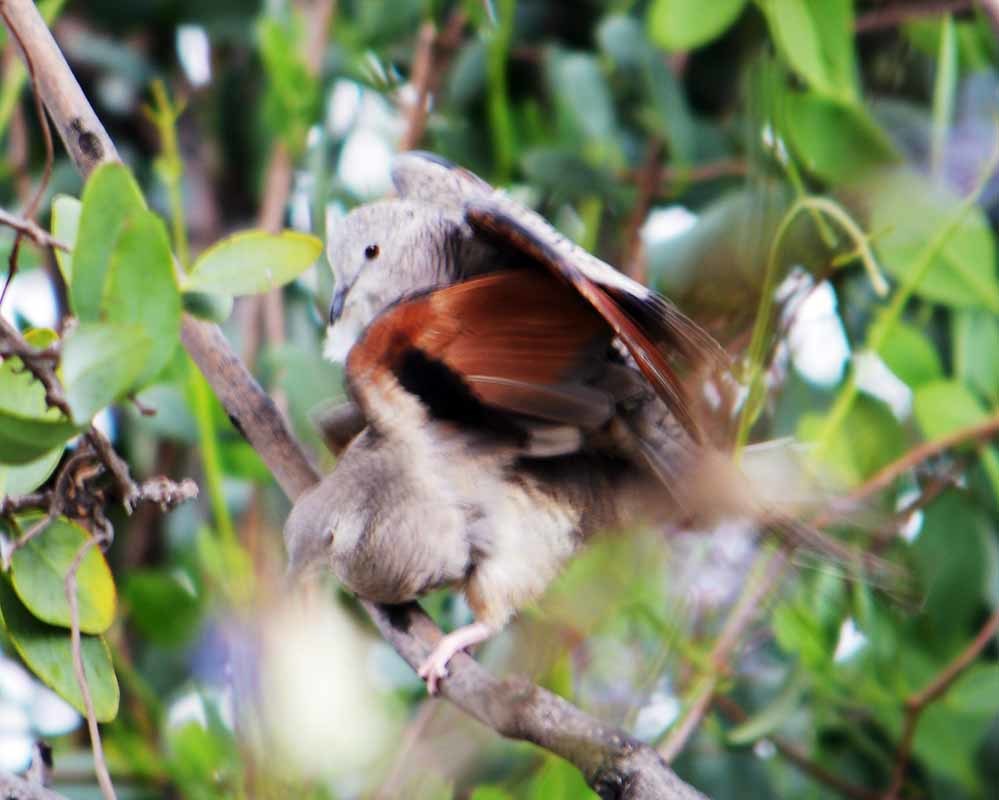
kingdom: Animalia
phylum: Chordata
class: Aves
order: Columbiformes
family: Columbidae
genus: Columbina
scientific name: Columbina inca
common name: Inca dove
